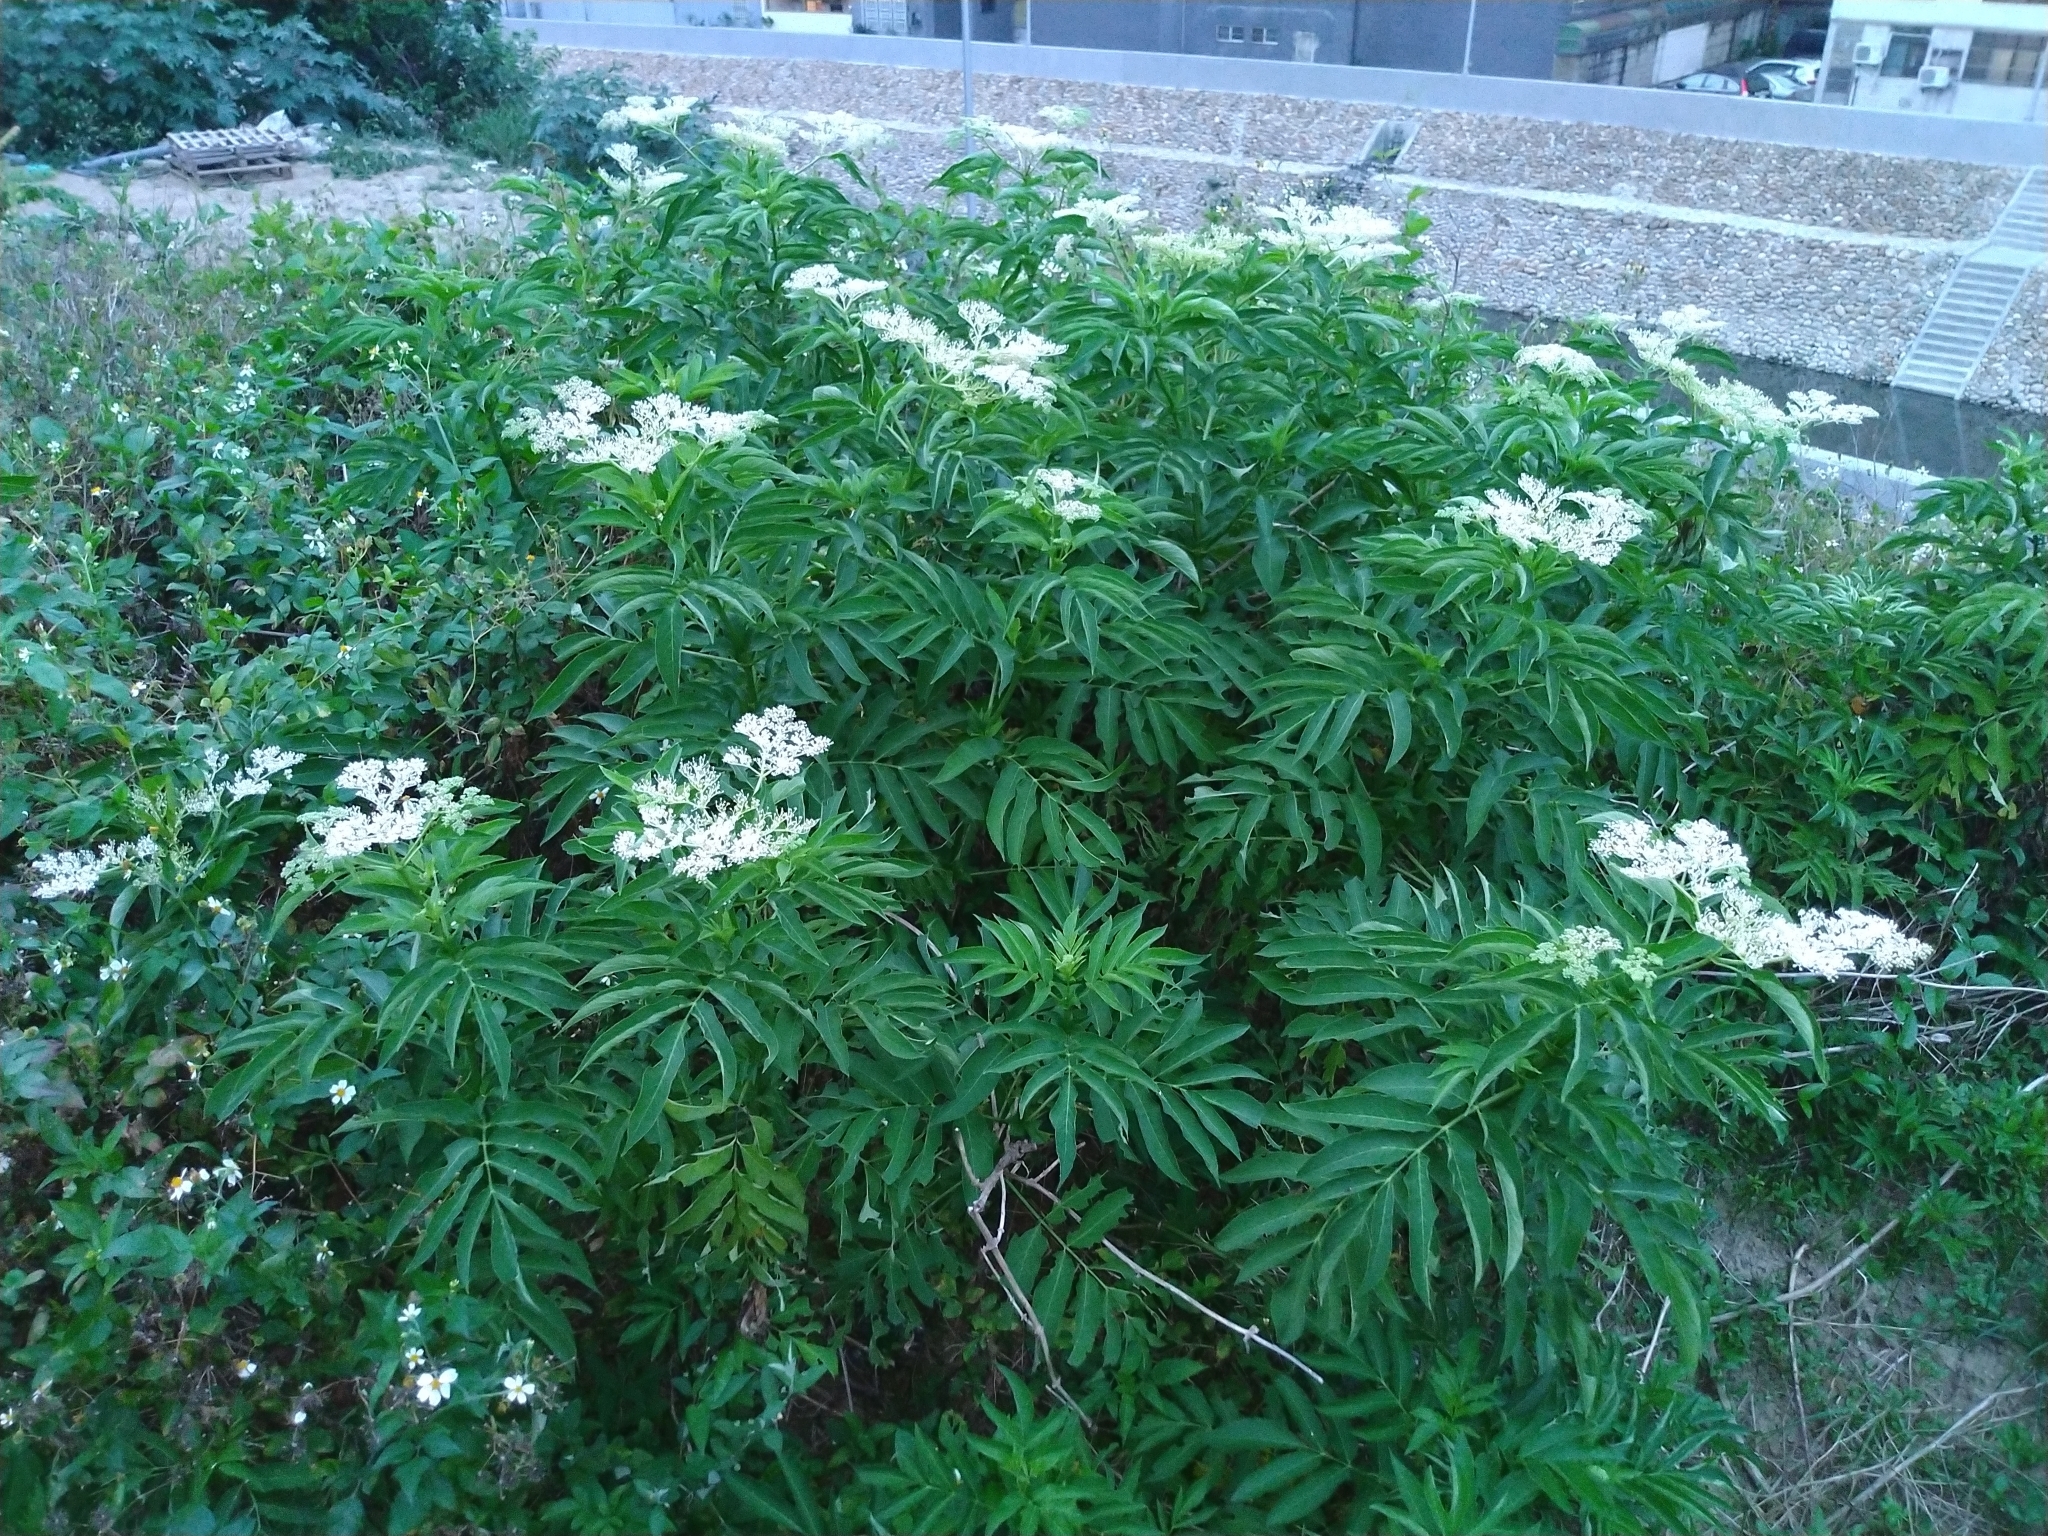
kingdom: Plantae
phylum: Tracheophyta
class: Magnoliopsida
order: Dipsacales
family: Viburnaceae
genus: Sambucus
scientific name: Sambucus javanica
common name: Chinese elder
